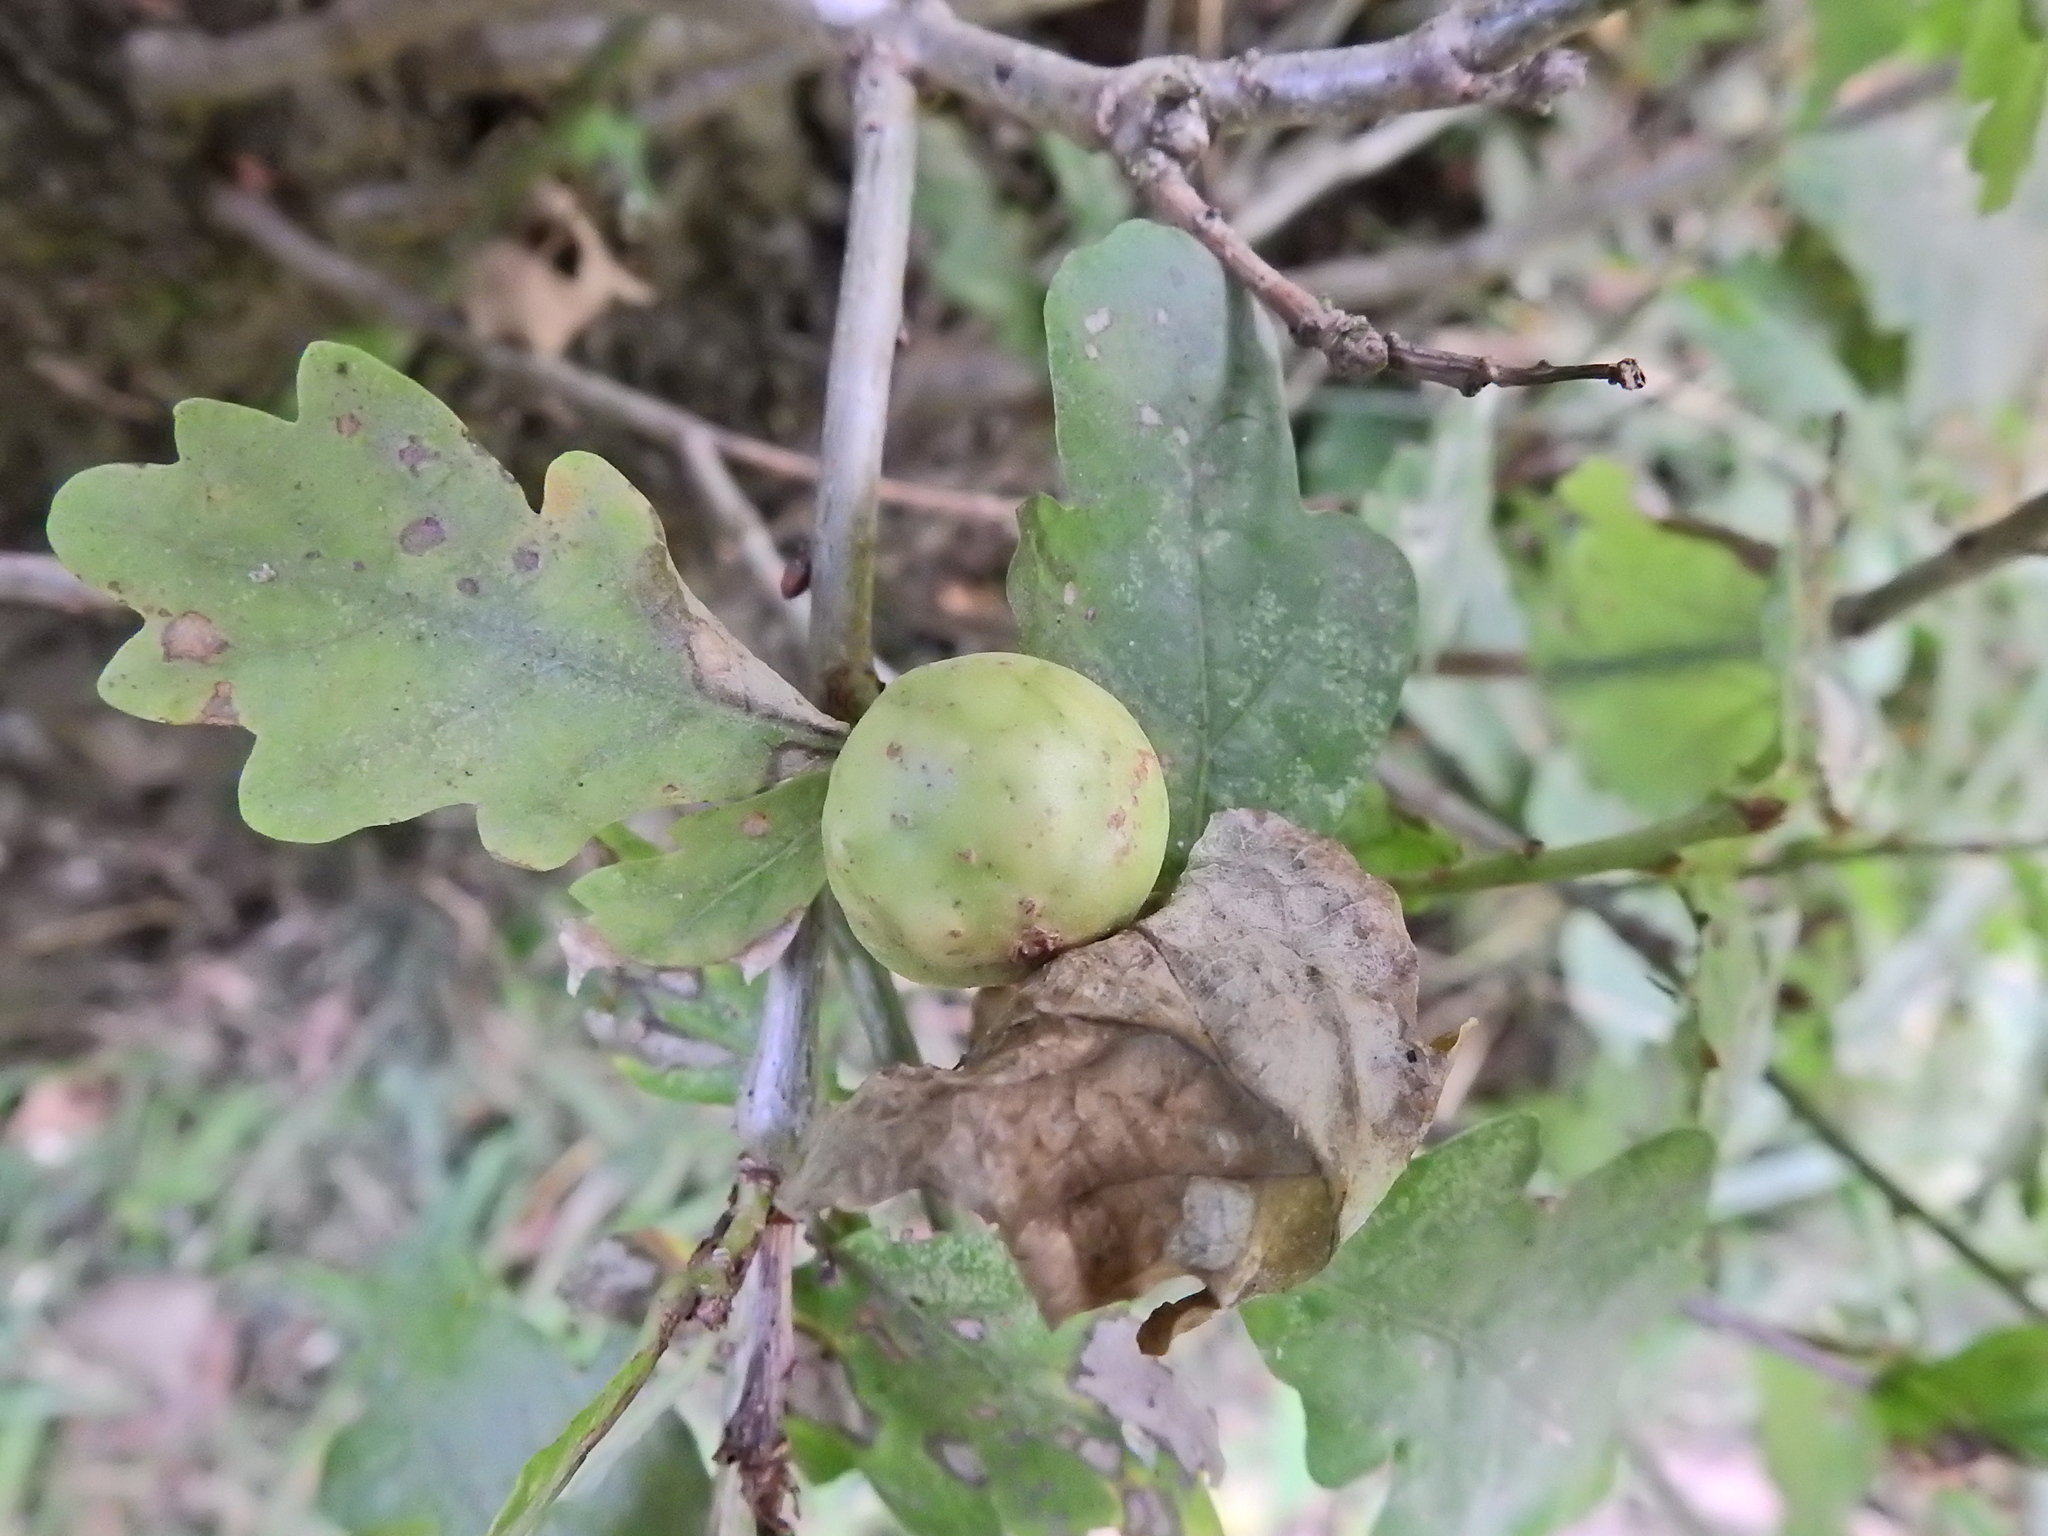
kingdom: Animalia
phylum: Arthropoda
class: Insecta
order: Hymenoptera
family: Cynipidae
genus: Andricus
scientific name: Andricus kollari
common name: Marble gall
